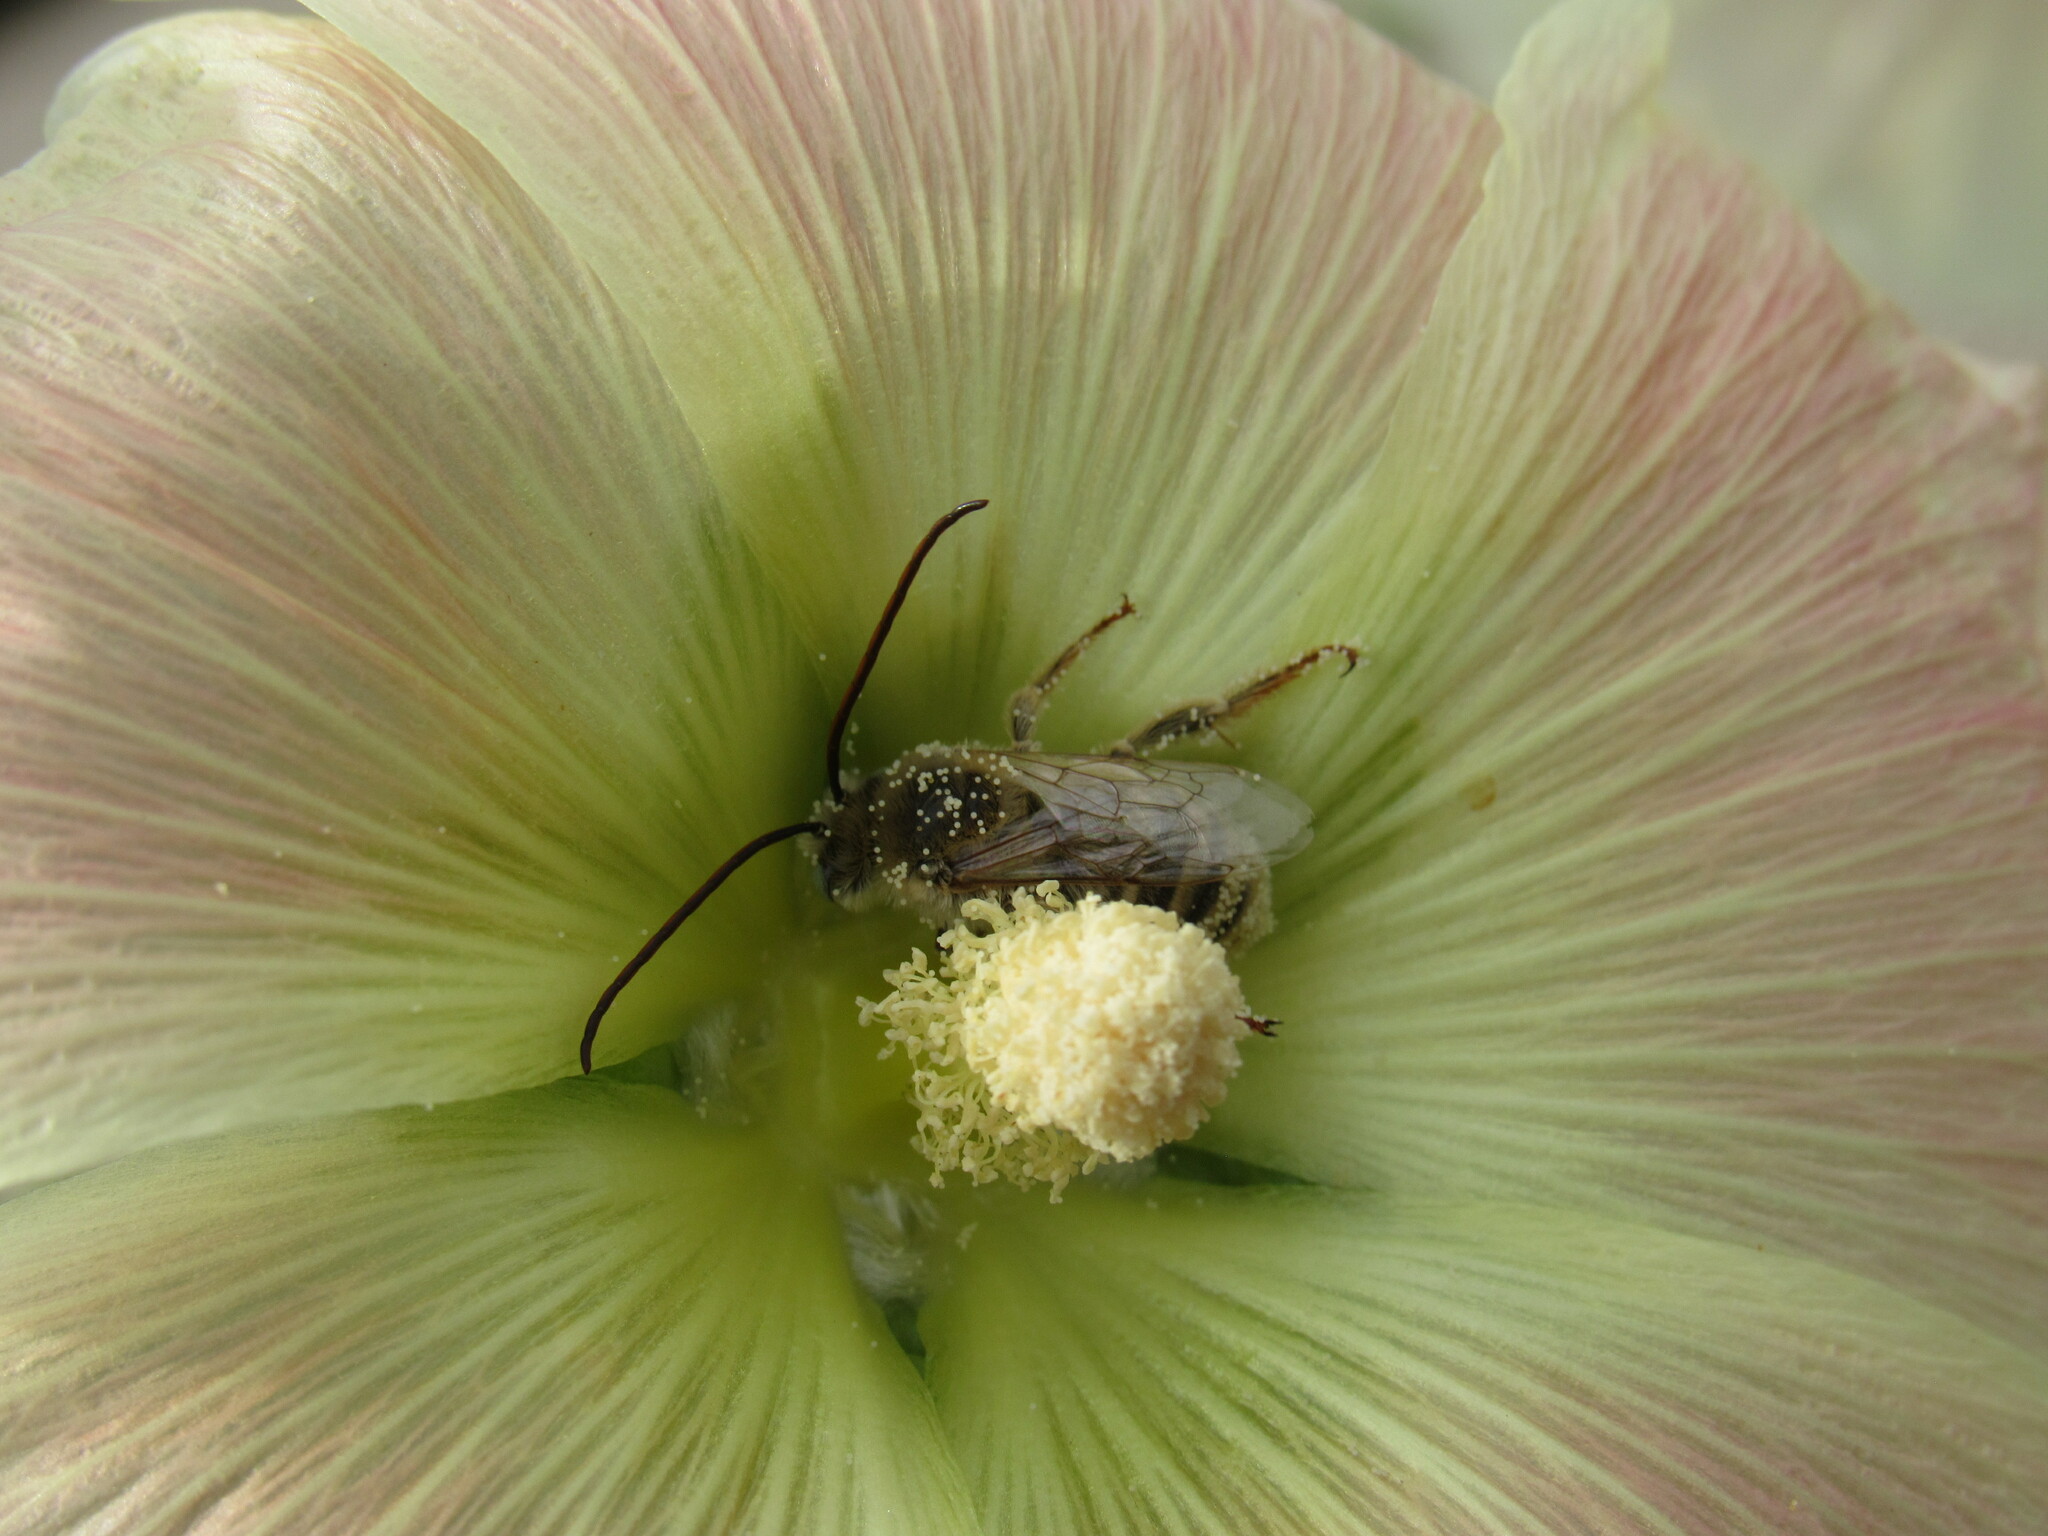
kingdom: Animalia
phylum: Arthropoda
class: Insecta
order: Hymenoptera
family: Apidae
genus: Melissodes
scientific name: Melissodes
